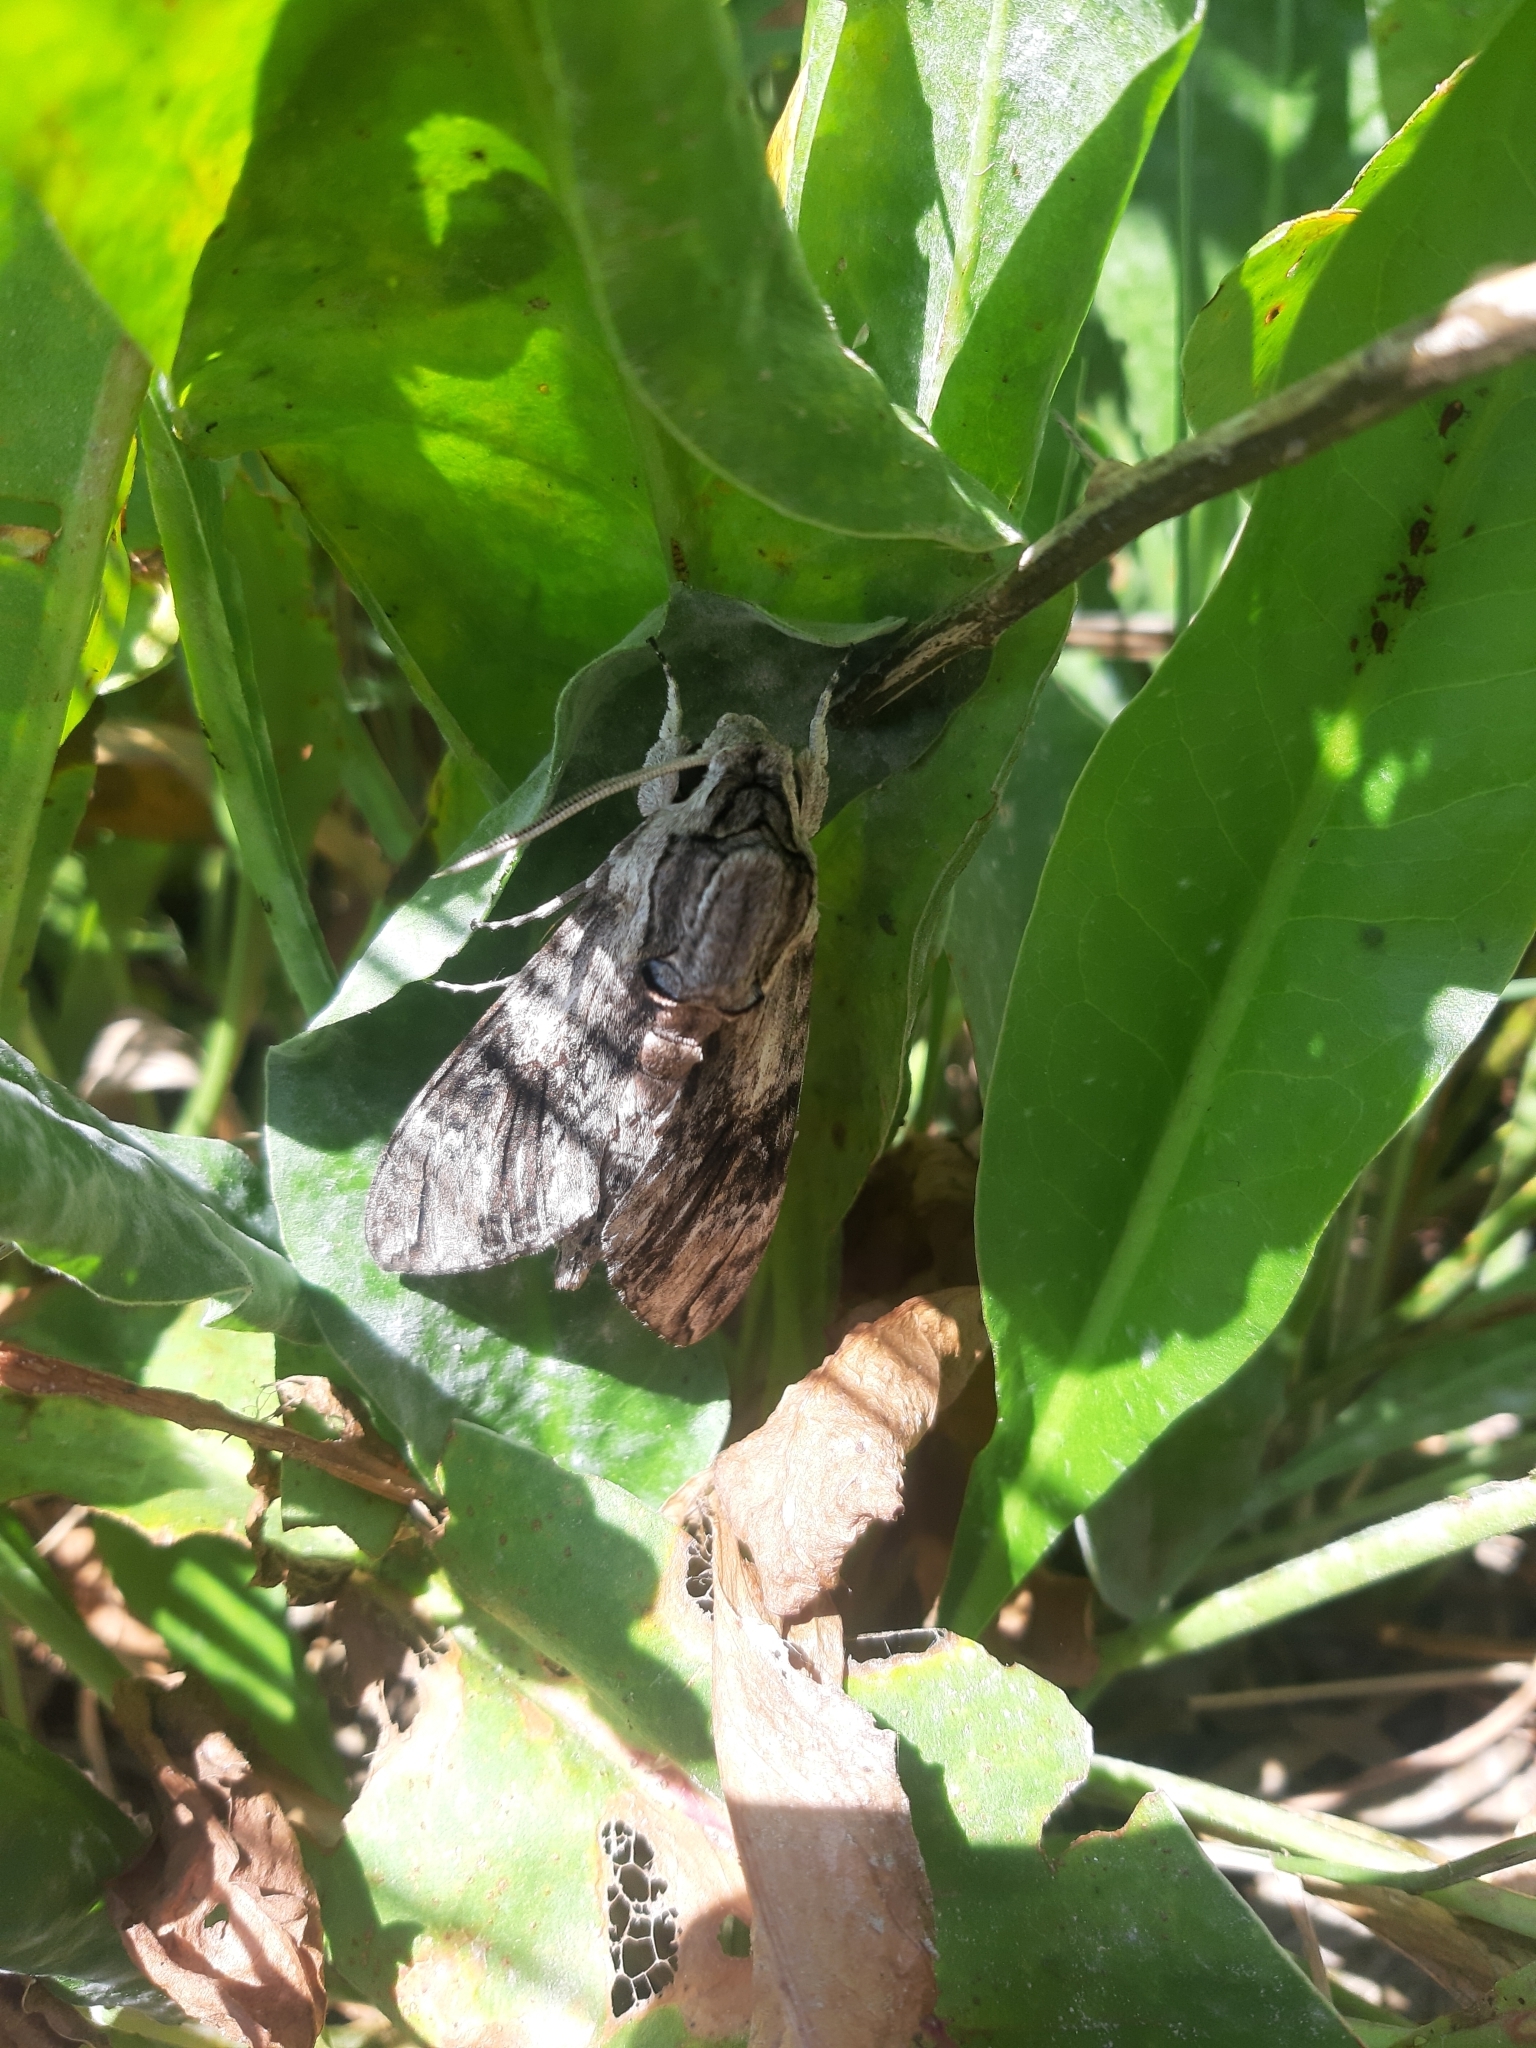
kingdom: Animalia
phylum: Arthropoda
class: Insecta
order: Lepidoptera
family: Sphingidae
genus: Agrius
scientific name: Agrius convolvuli
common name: Convolvulus hawkmoth
